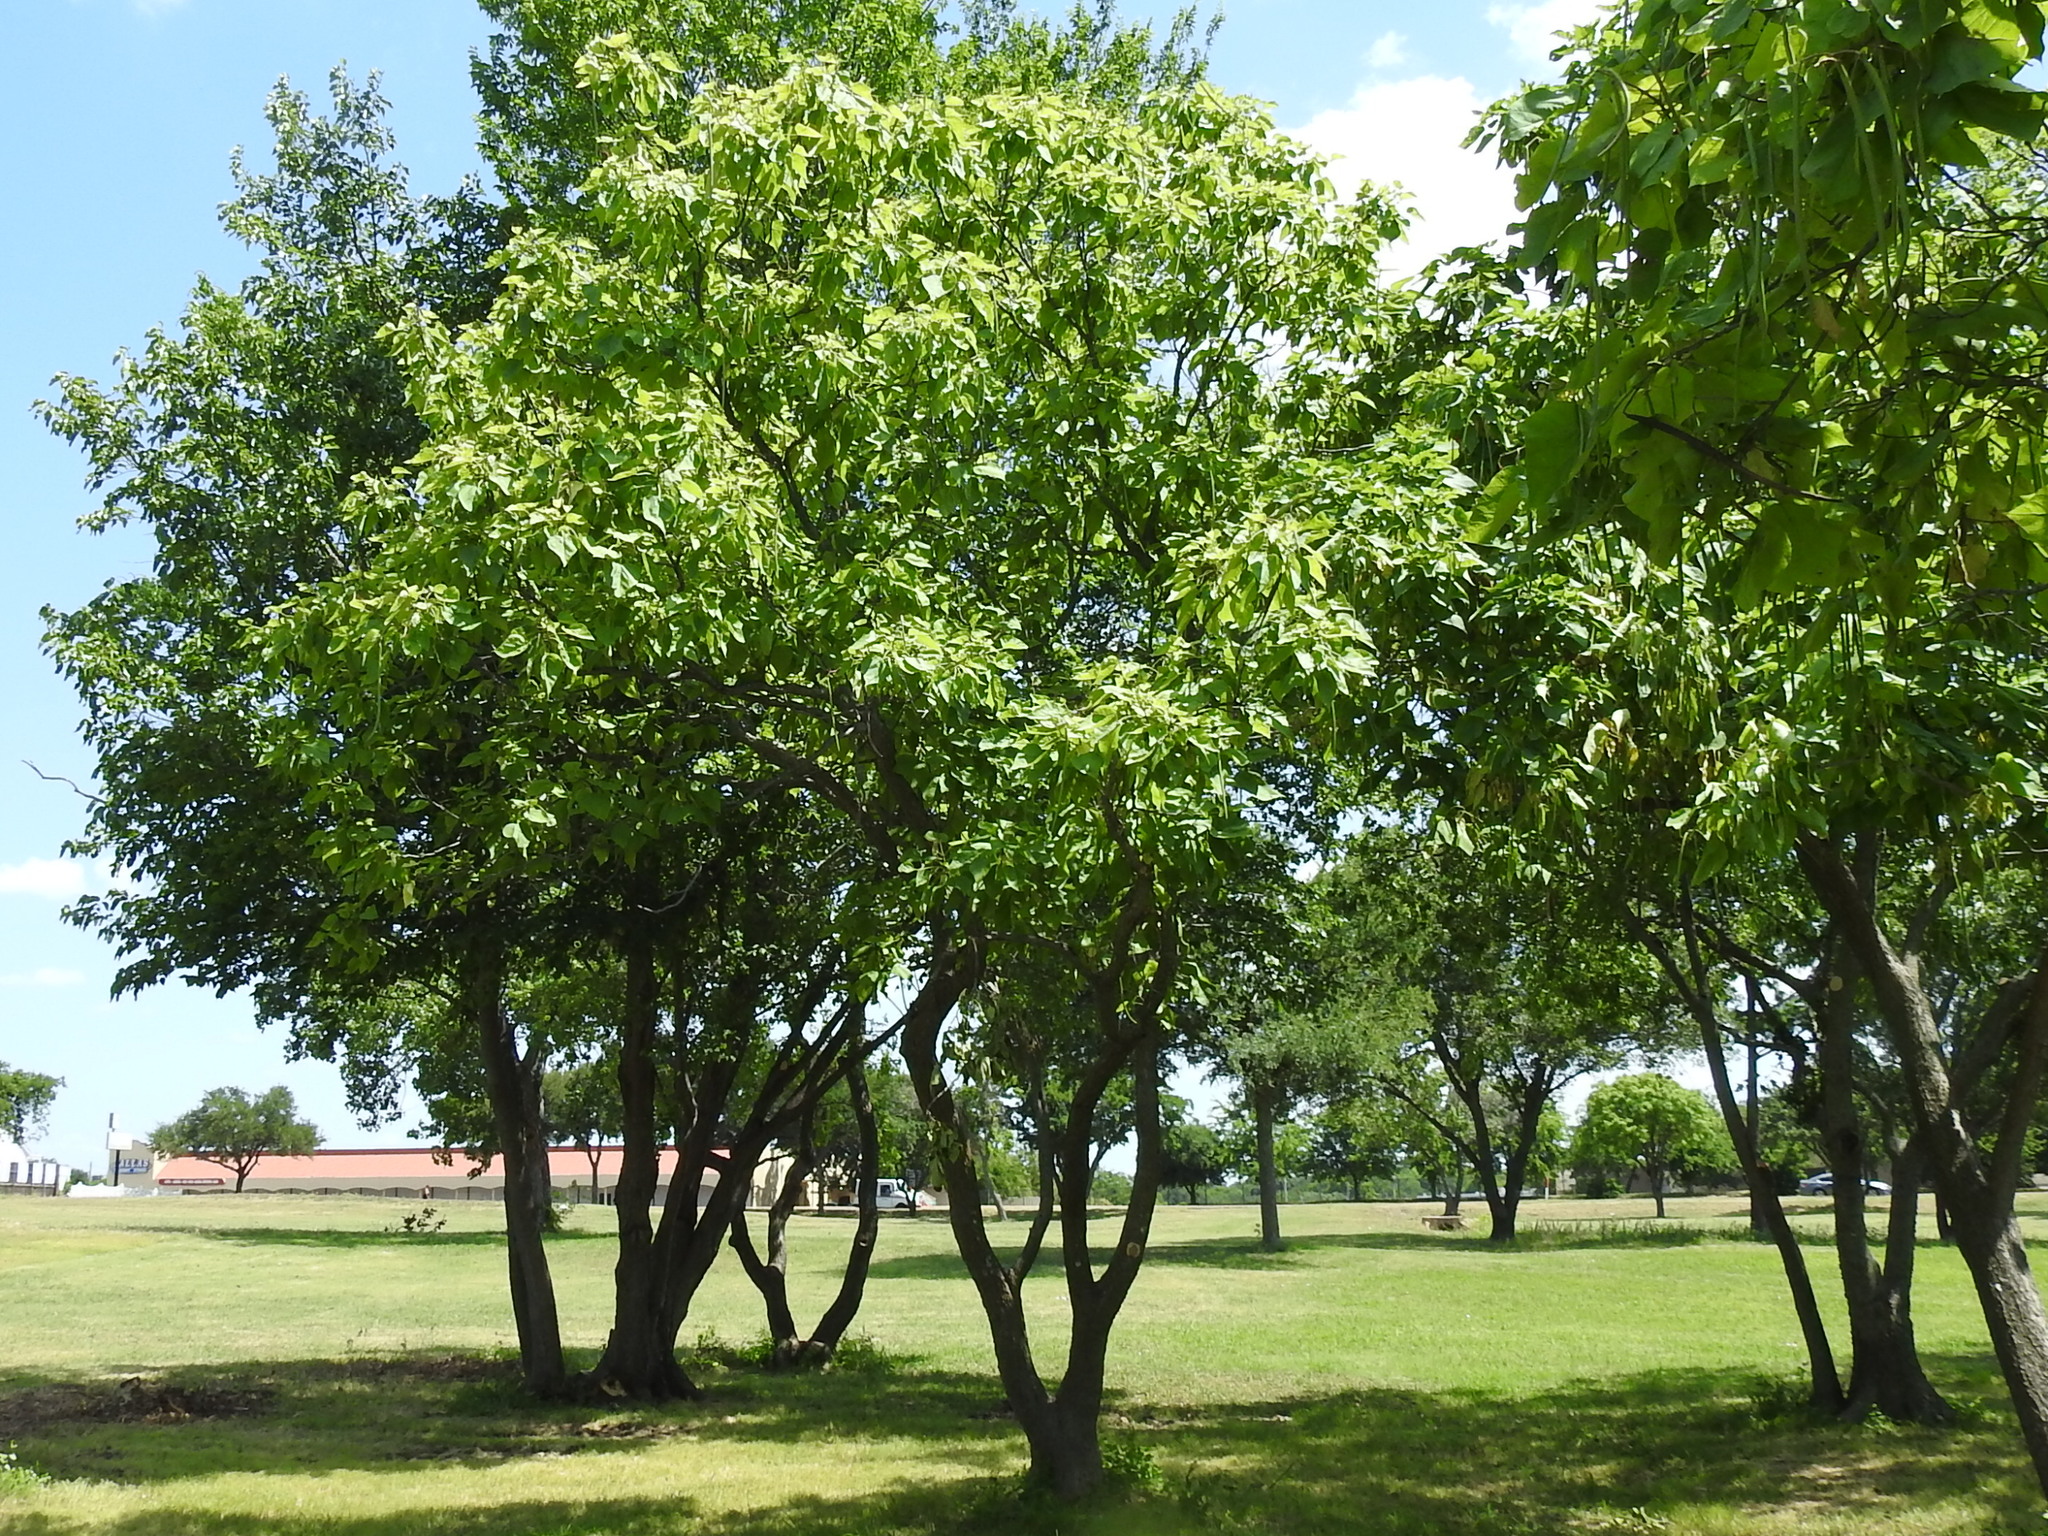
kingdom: Plantae
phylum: Tracheophyta
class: Magnoliopsida
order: Lamiales
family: Bignoniaceae
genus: Catalpa
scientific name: Catalpa speciosa
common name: Northern catalpa
